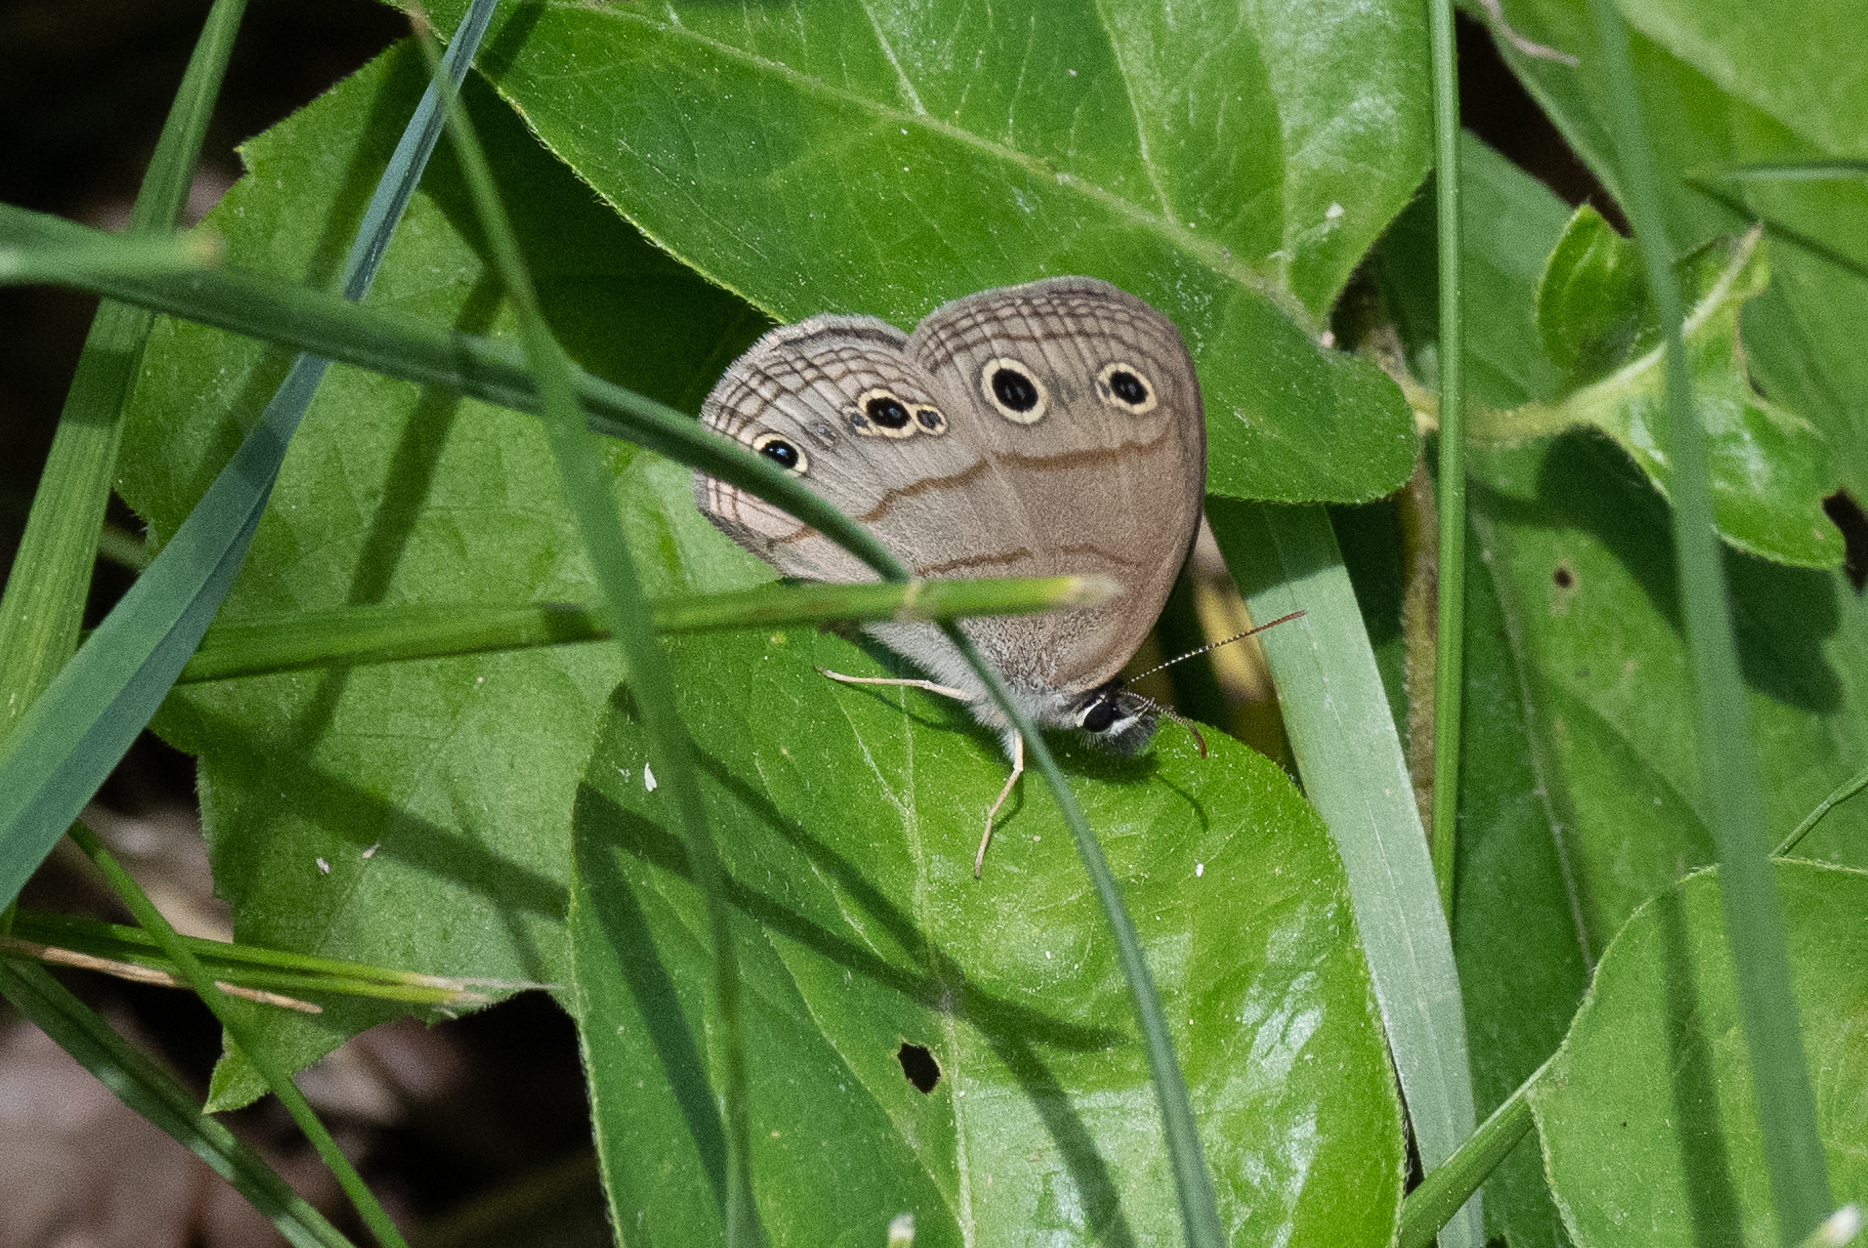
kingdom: Animalia
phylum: Arthropoda
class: Insecta
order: Lepidoptera
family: Nymphalidae
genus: Euptychia
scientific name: Euptychia cymela
